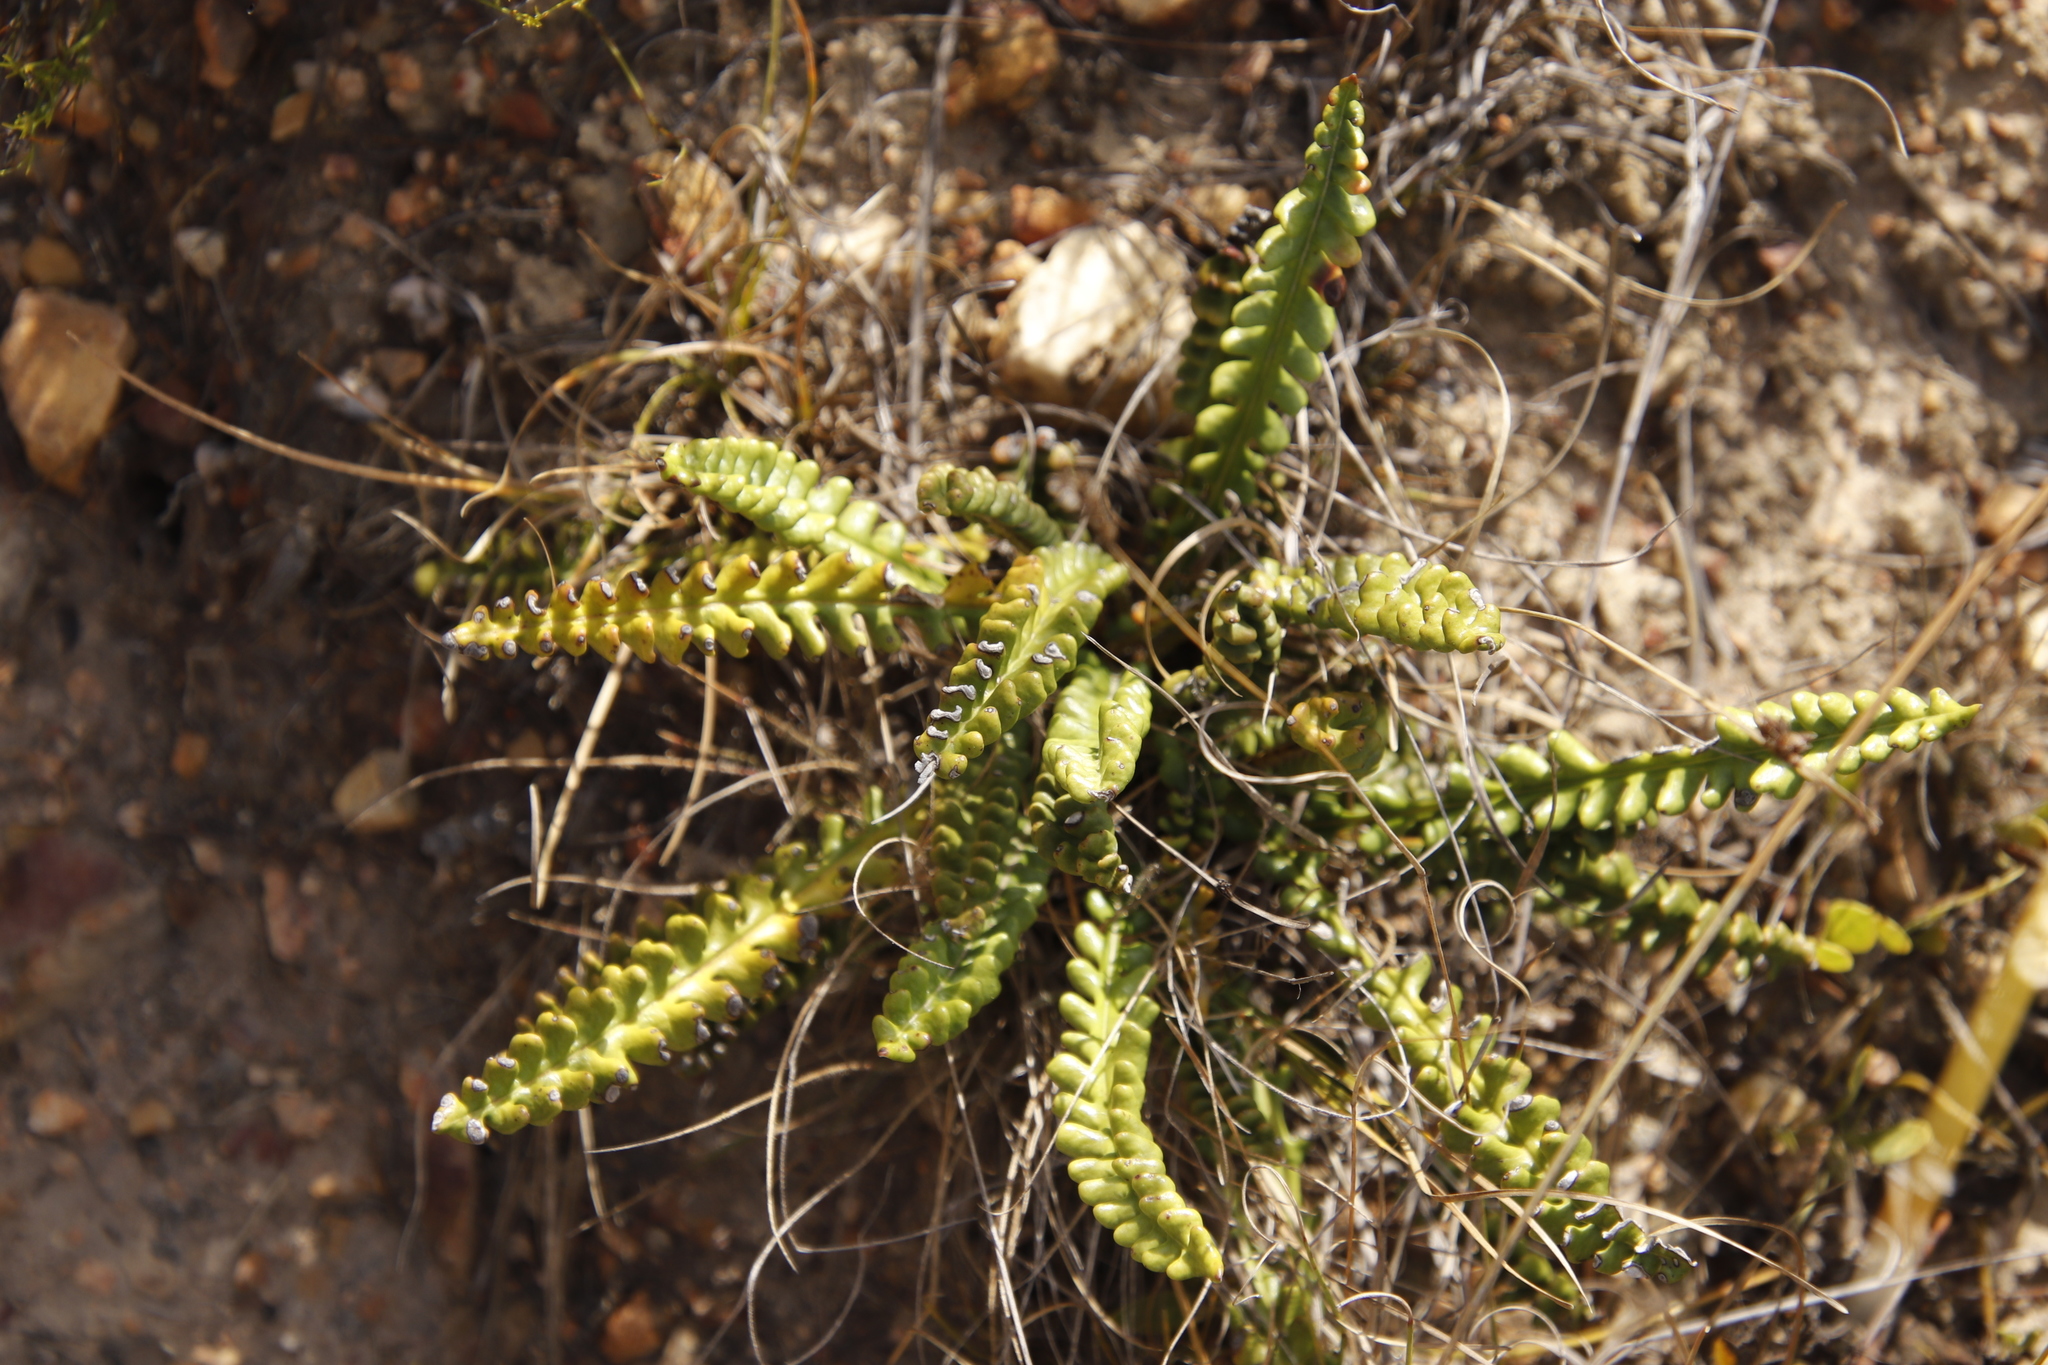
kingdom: Plantae
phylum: Tracheophyta
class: Magnoliopsida
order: Asterales
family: Asteraceae
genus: Gerbera
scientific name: Gerbera linnaei
